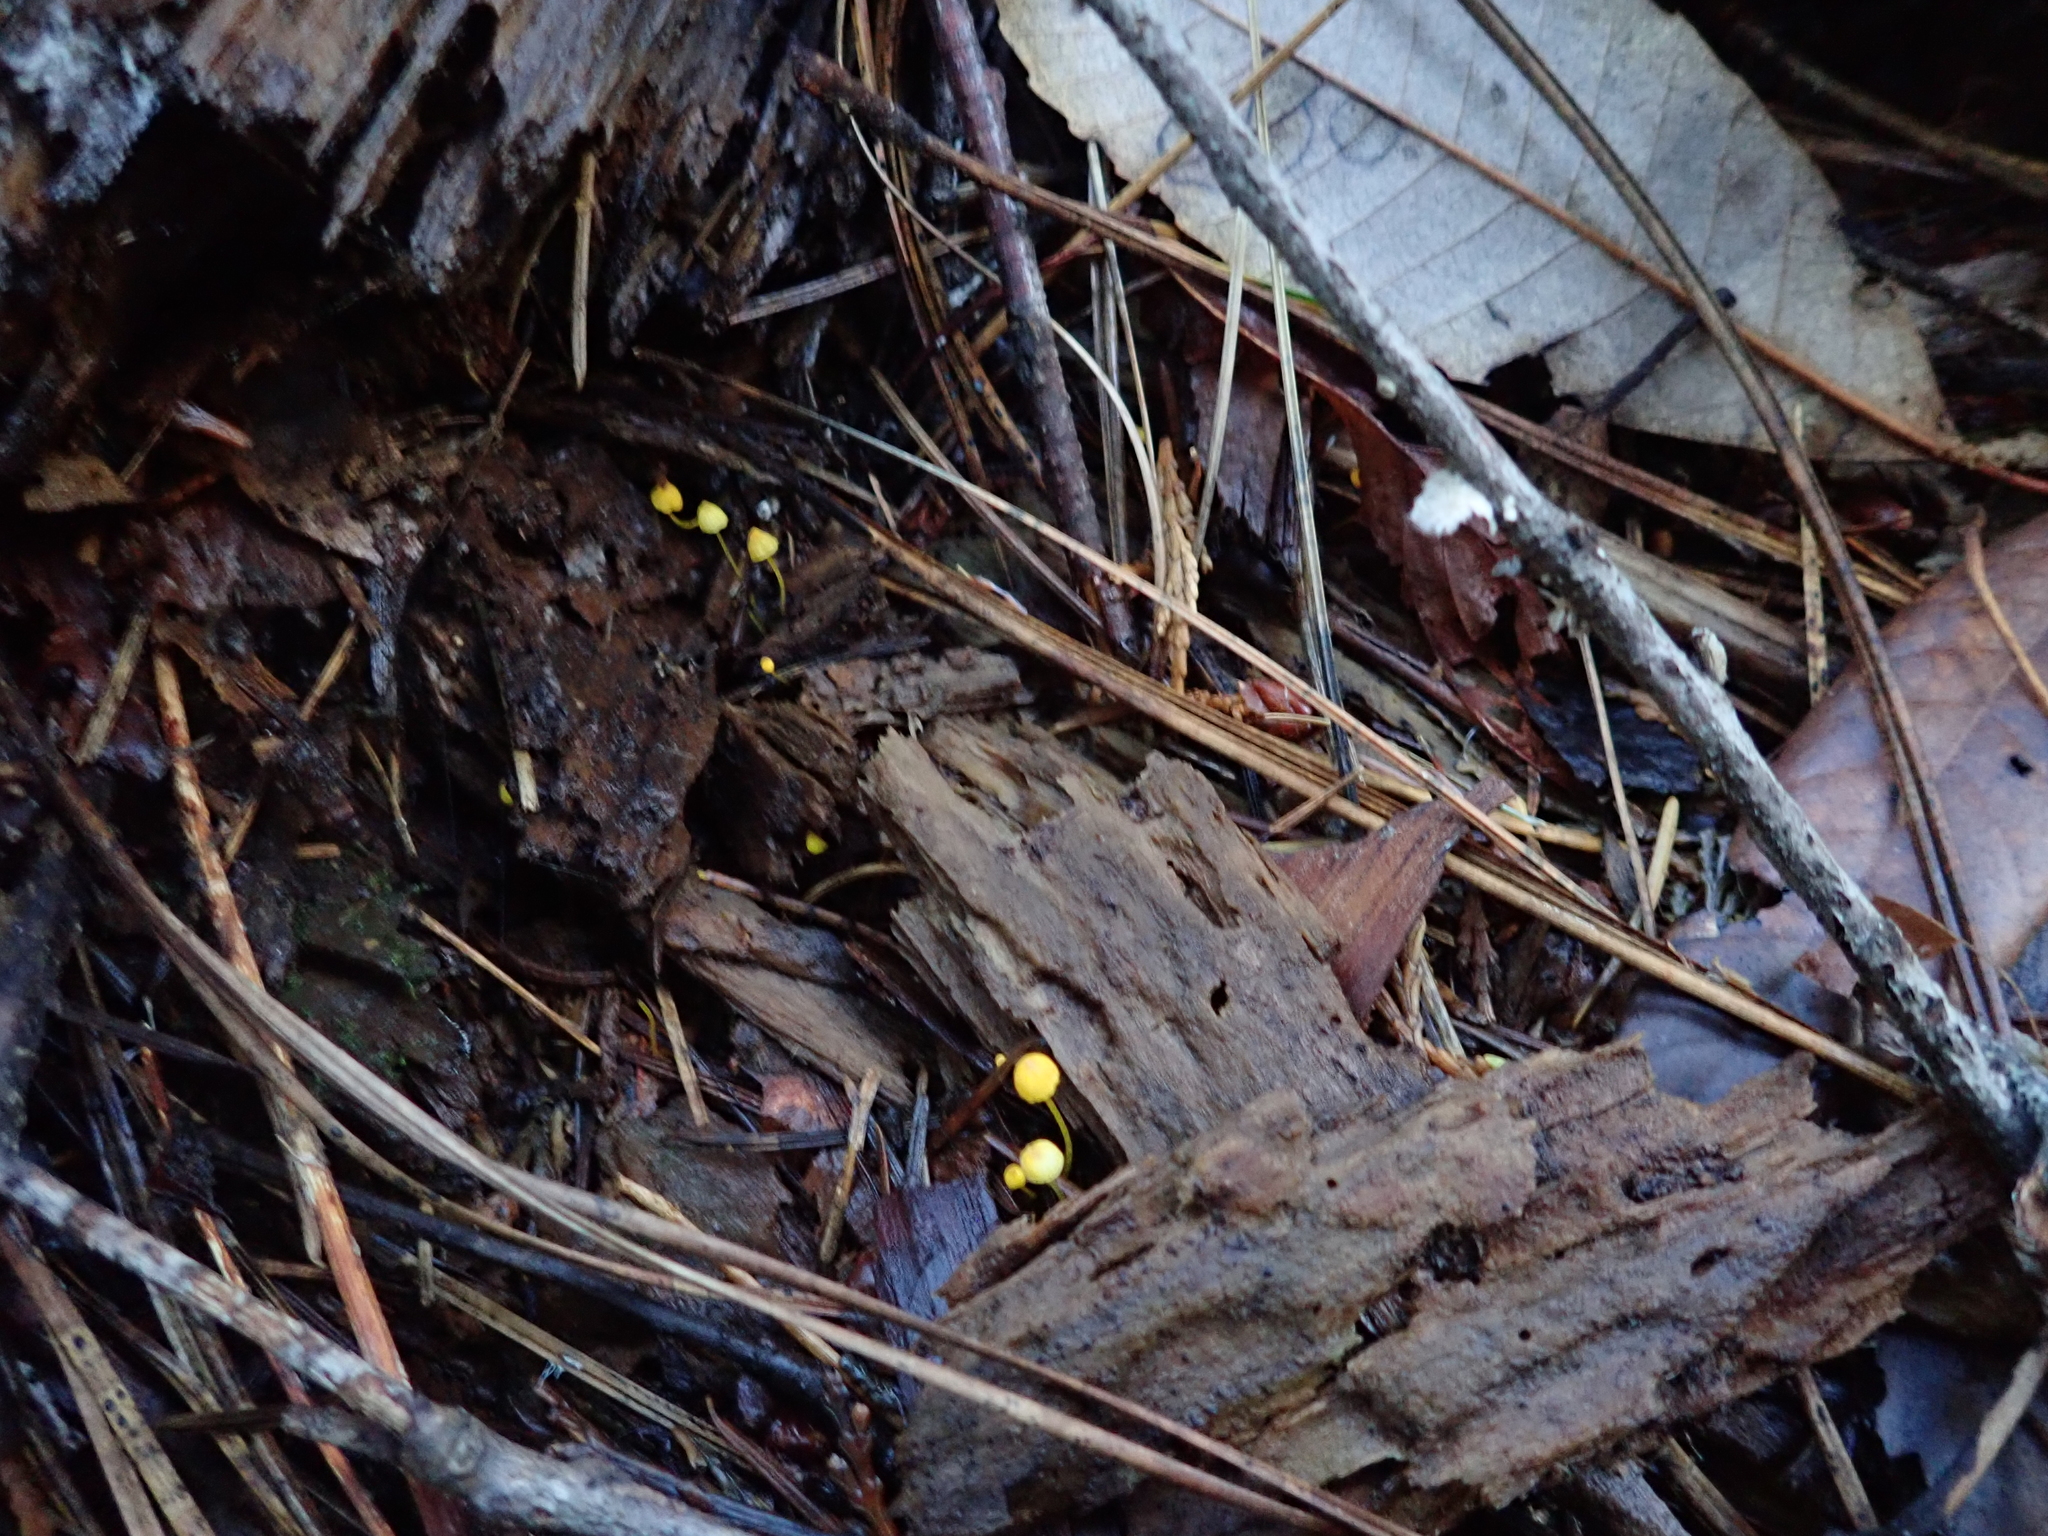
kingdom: Fungi
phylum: Basidiomycota
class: Agaricomycetes
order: Agaricales
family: Mycenaceae
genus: Mycena
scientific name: Mycena oregonensis
